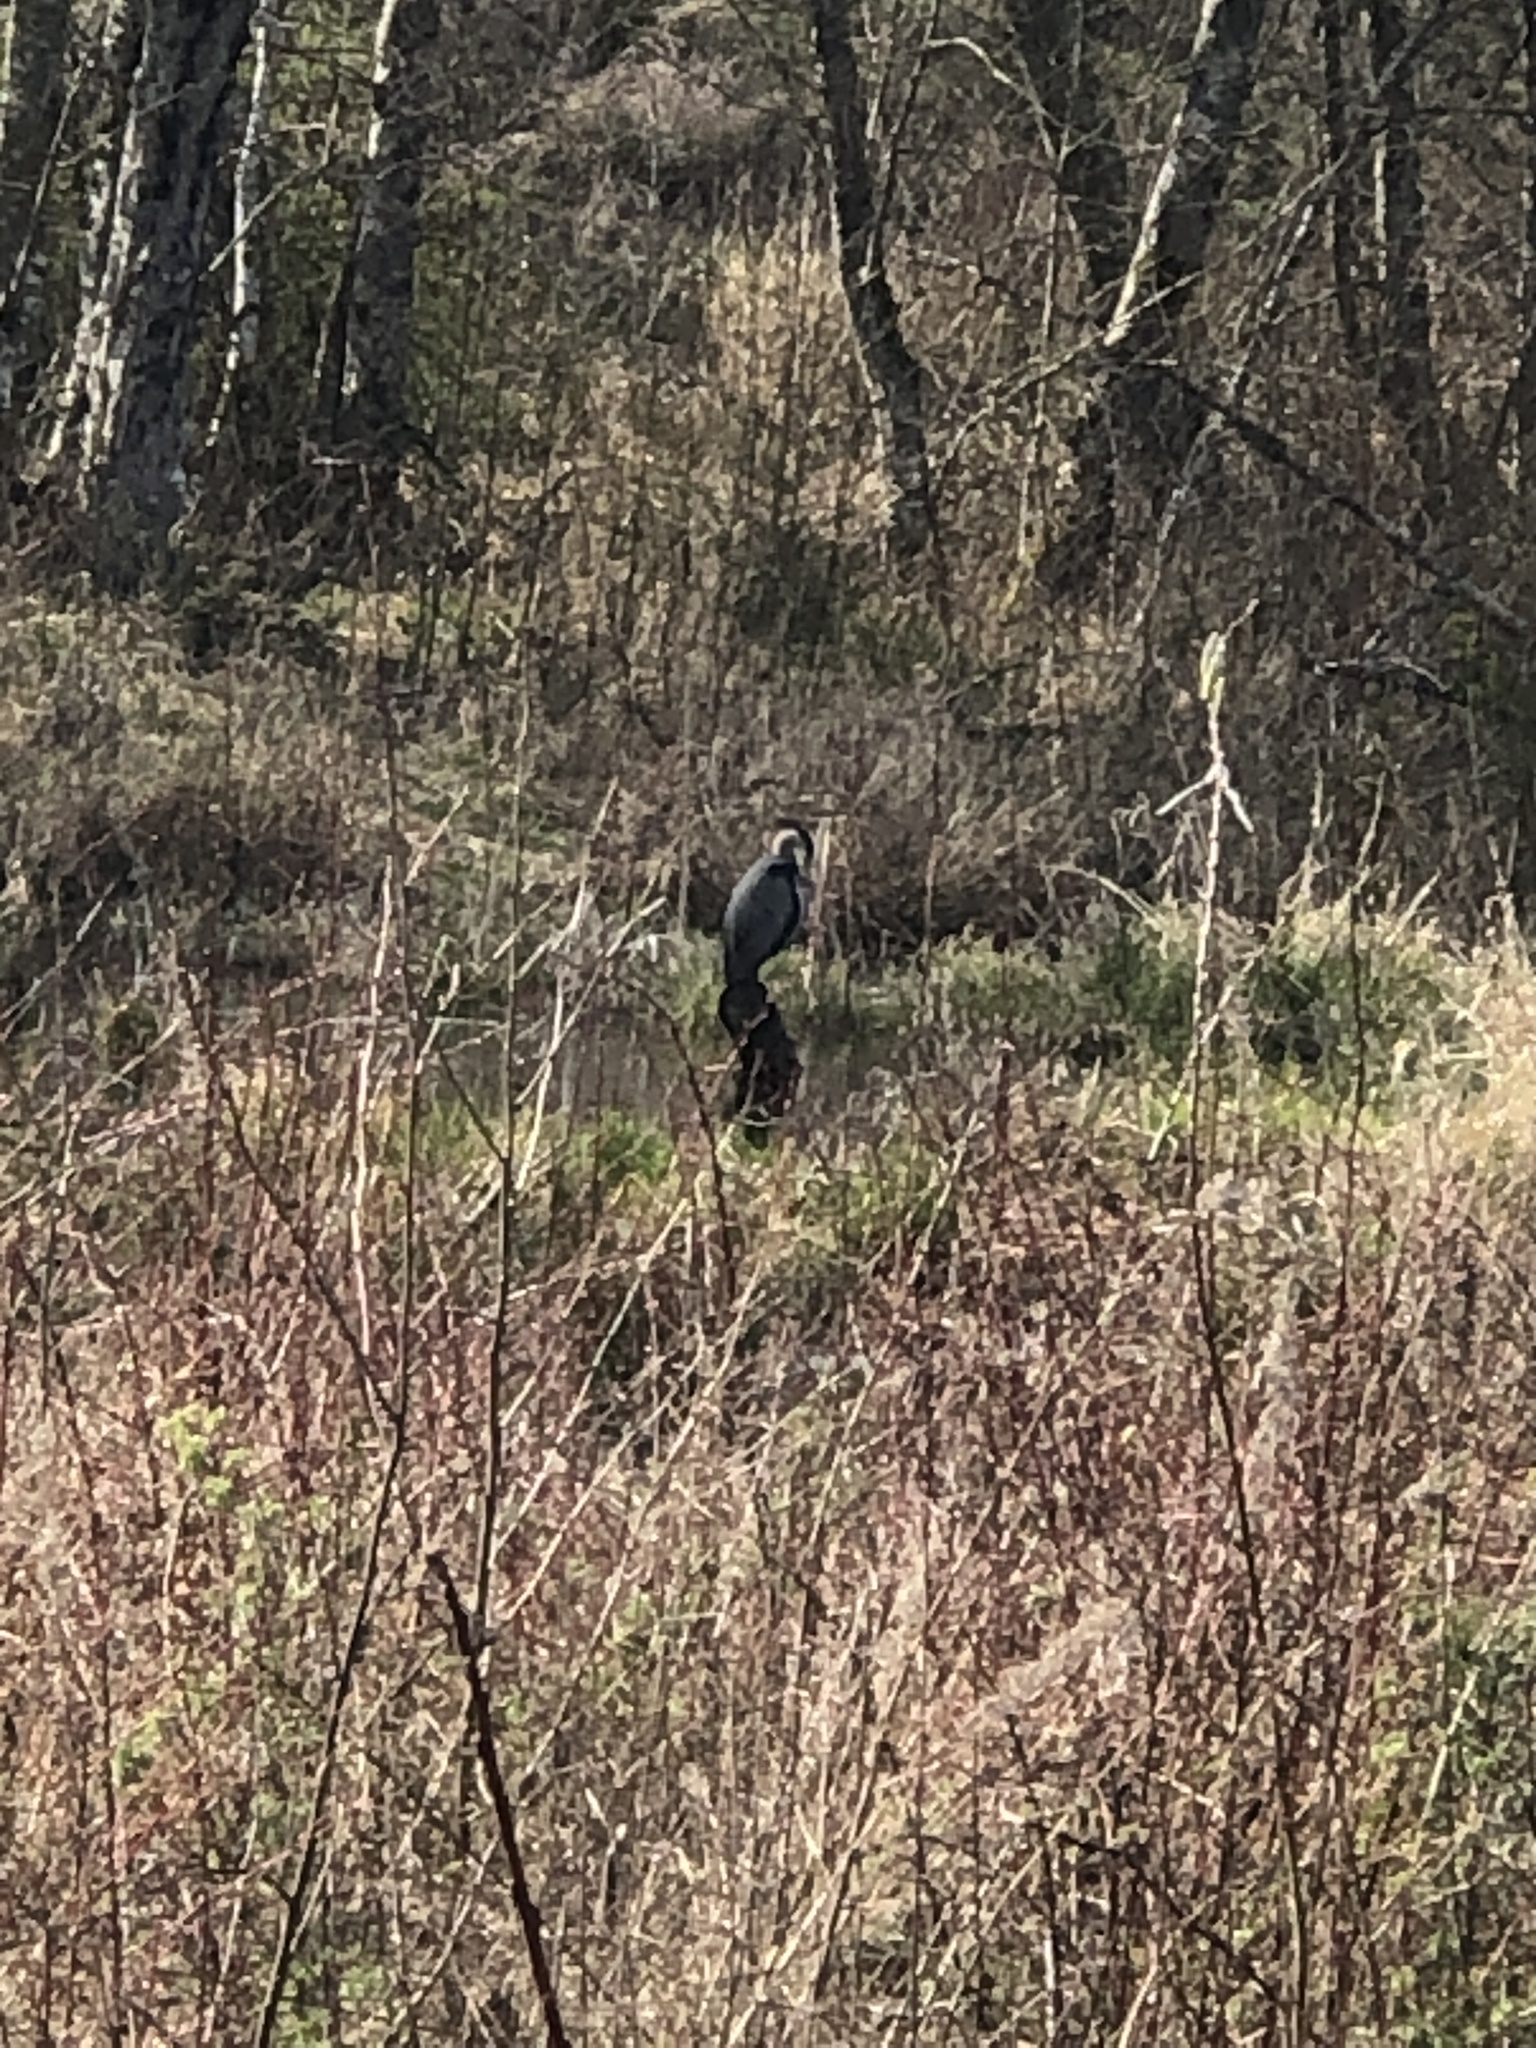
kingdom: Animalia
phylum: Chordata
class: Aves
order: Pelecaniformes
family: Ardeidae
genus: Ardea
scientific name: Ardea herodias
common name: Great blue heron
